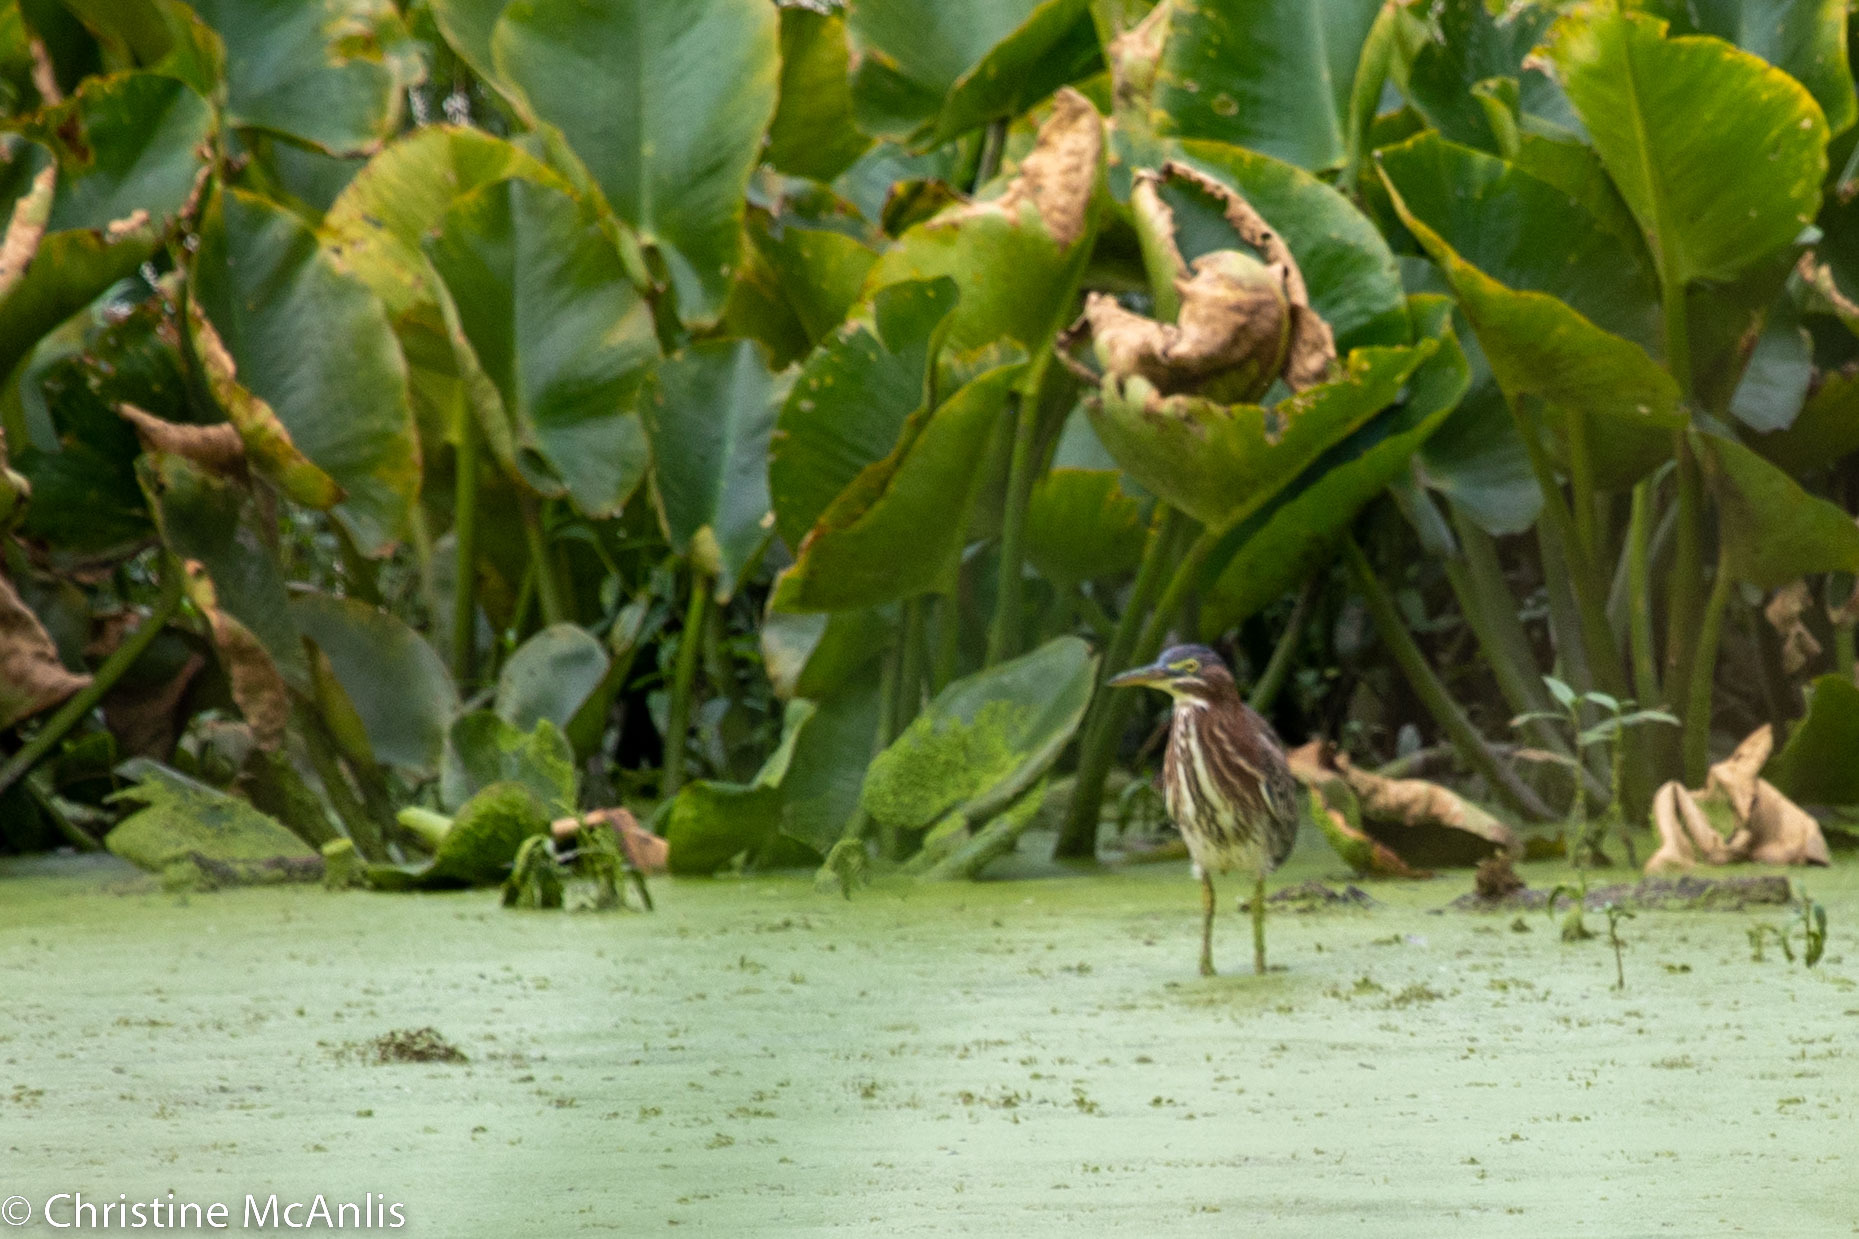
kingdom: Animalia
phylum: Chordata
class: Aves
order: Pelecaniformes
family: Ardeidae
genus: Butorides
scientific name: Butorides virescens
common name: Green heron
